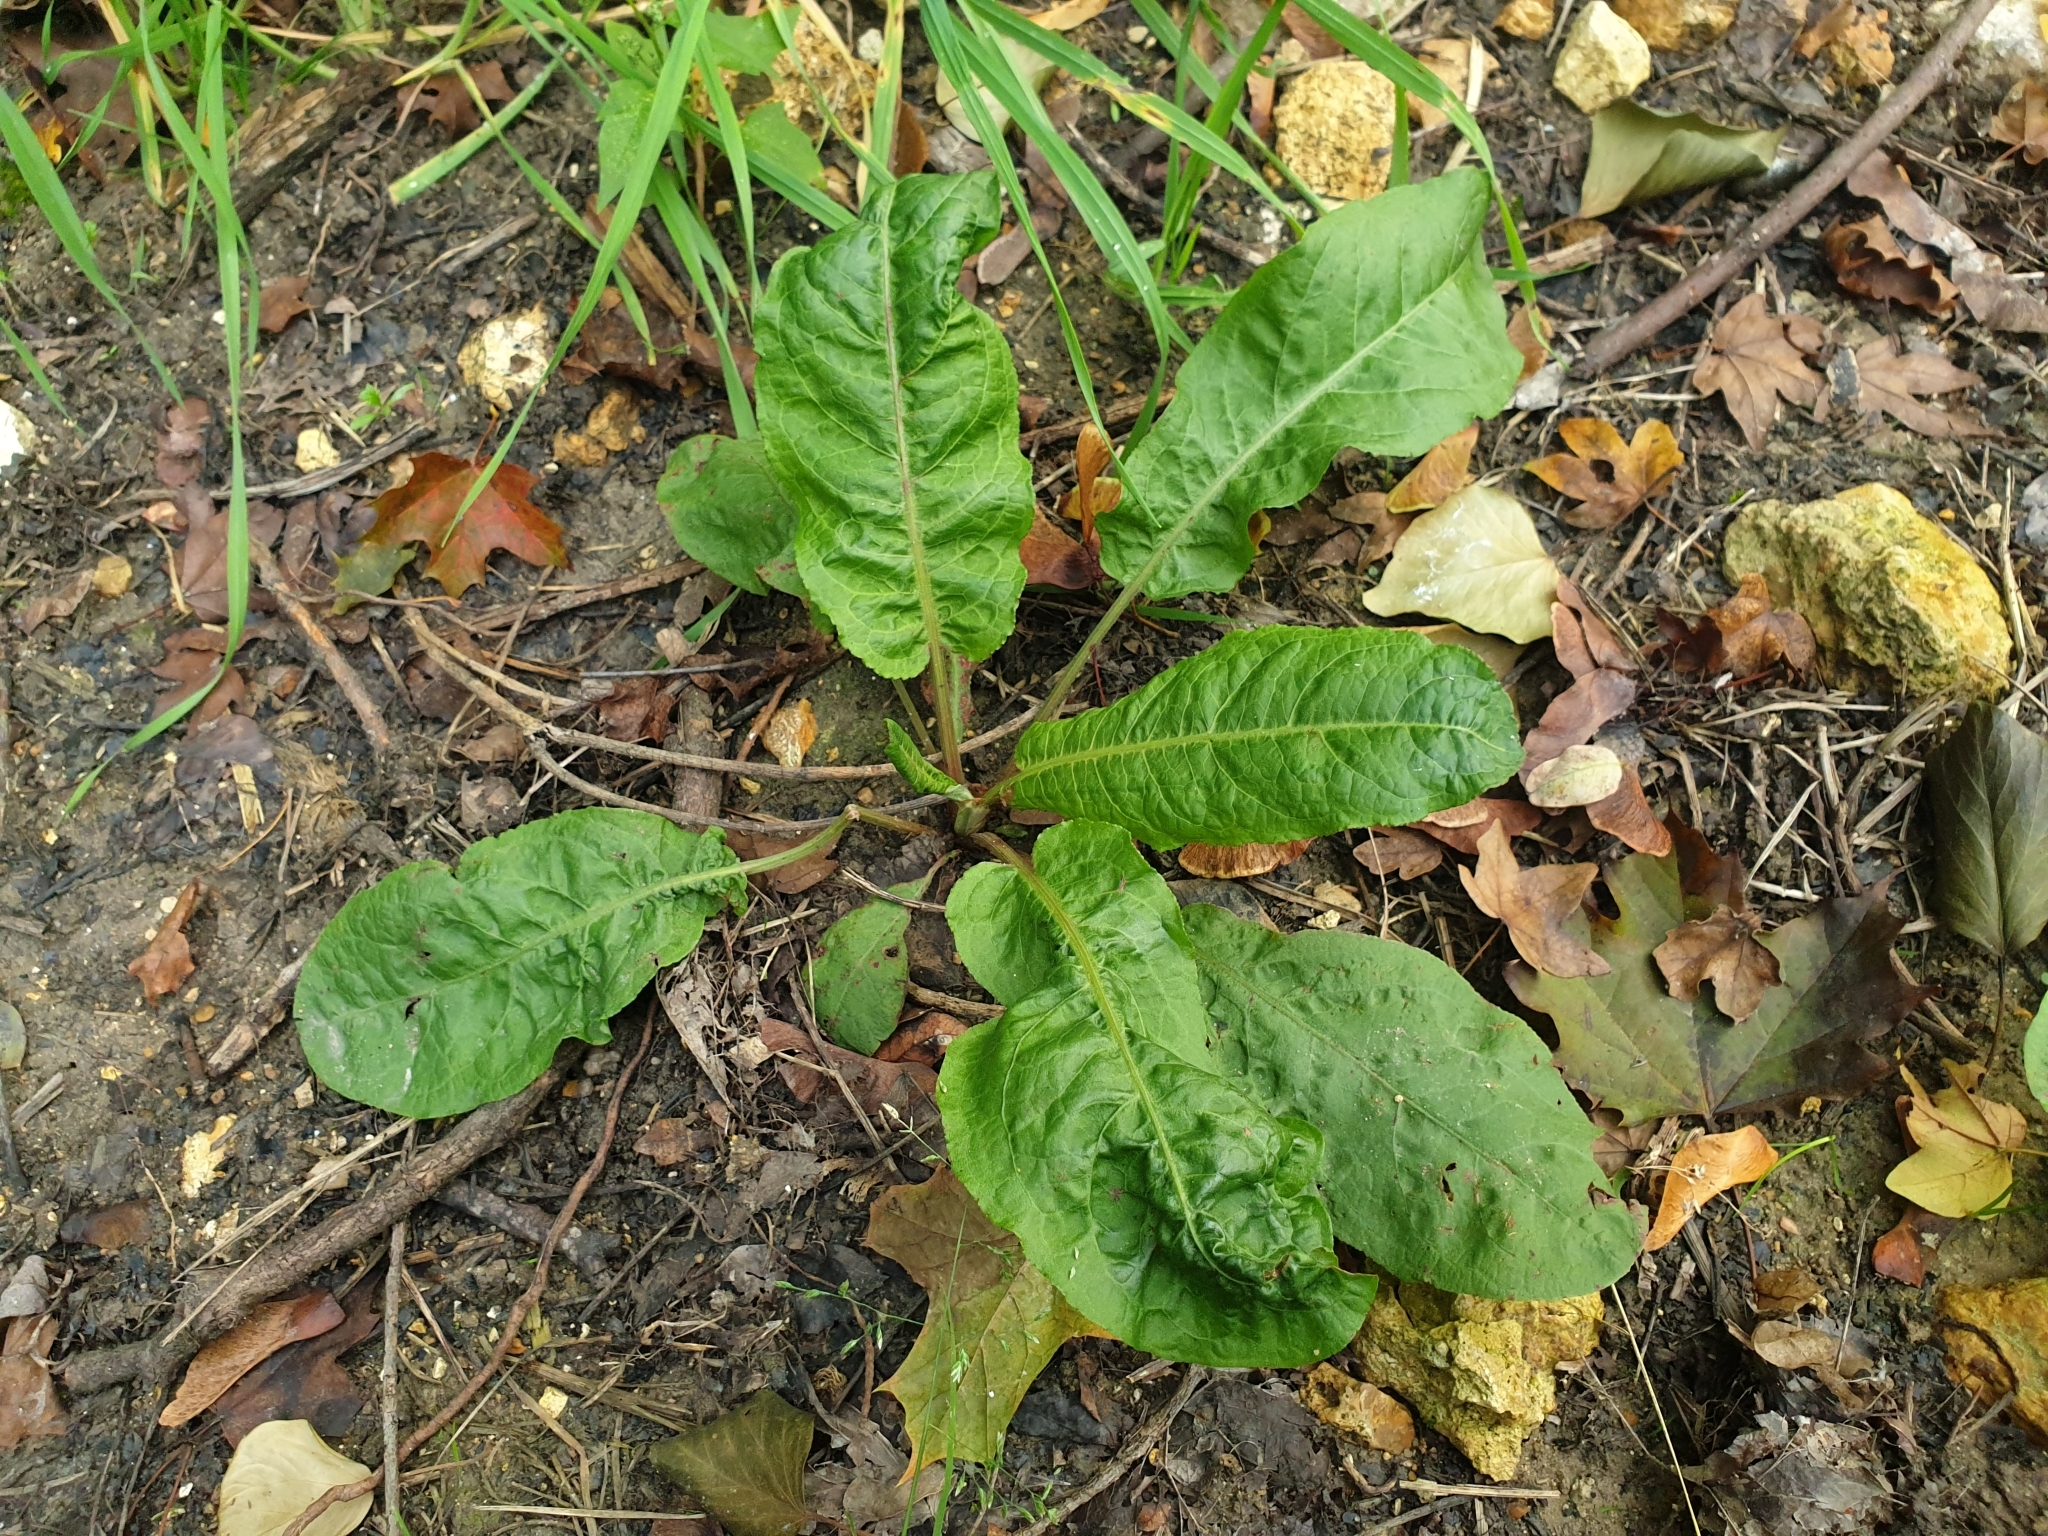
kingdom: Plantae
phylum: Tracheophyta
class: Magnoliopsida
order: Caryophyllales
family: Polygonaceae
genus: Rumex
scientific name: Rumex obtusifolius
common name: Bitter dock
